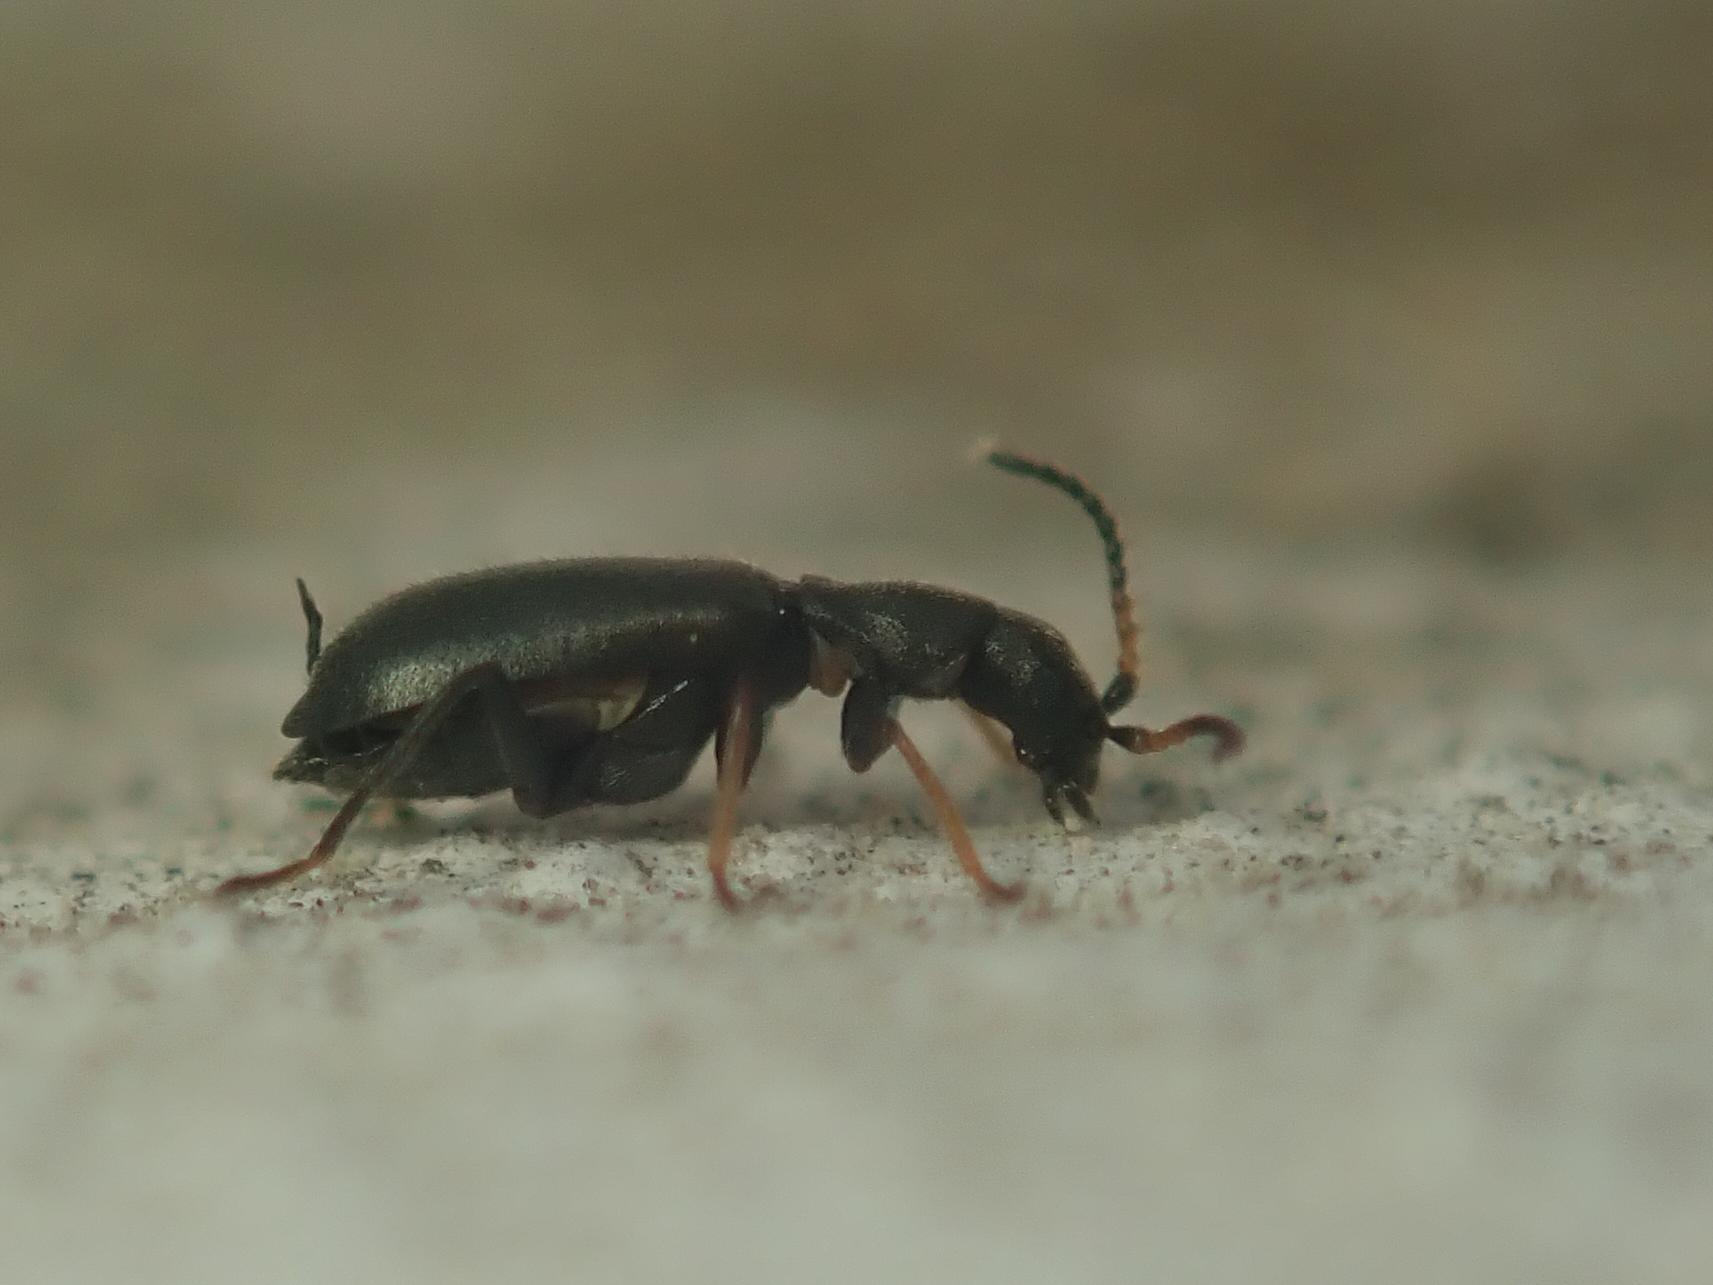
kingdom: Animalia
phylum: Arthropoda
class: Insecta
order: Coleoptera
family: Malachiidae
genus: Charopus
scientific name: Charopus flavipes
